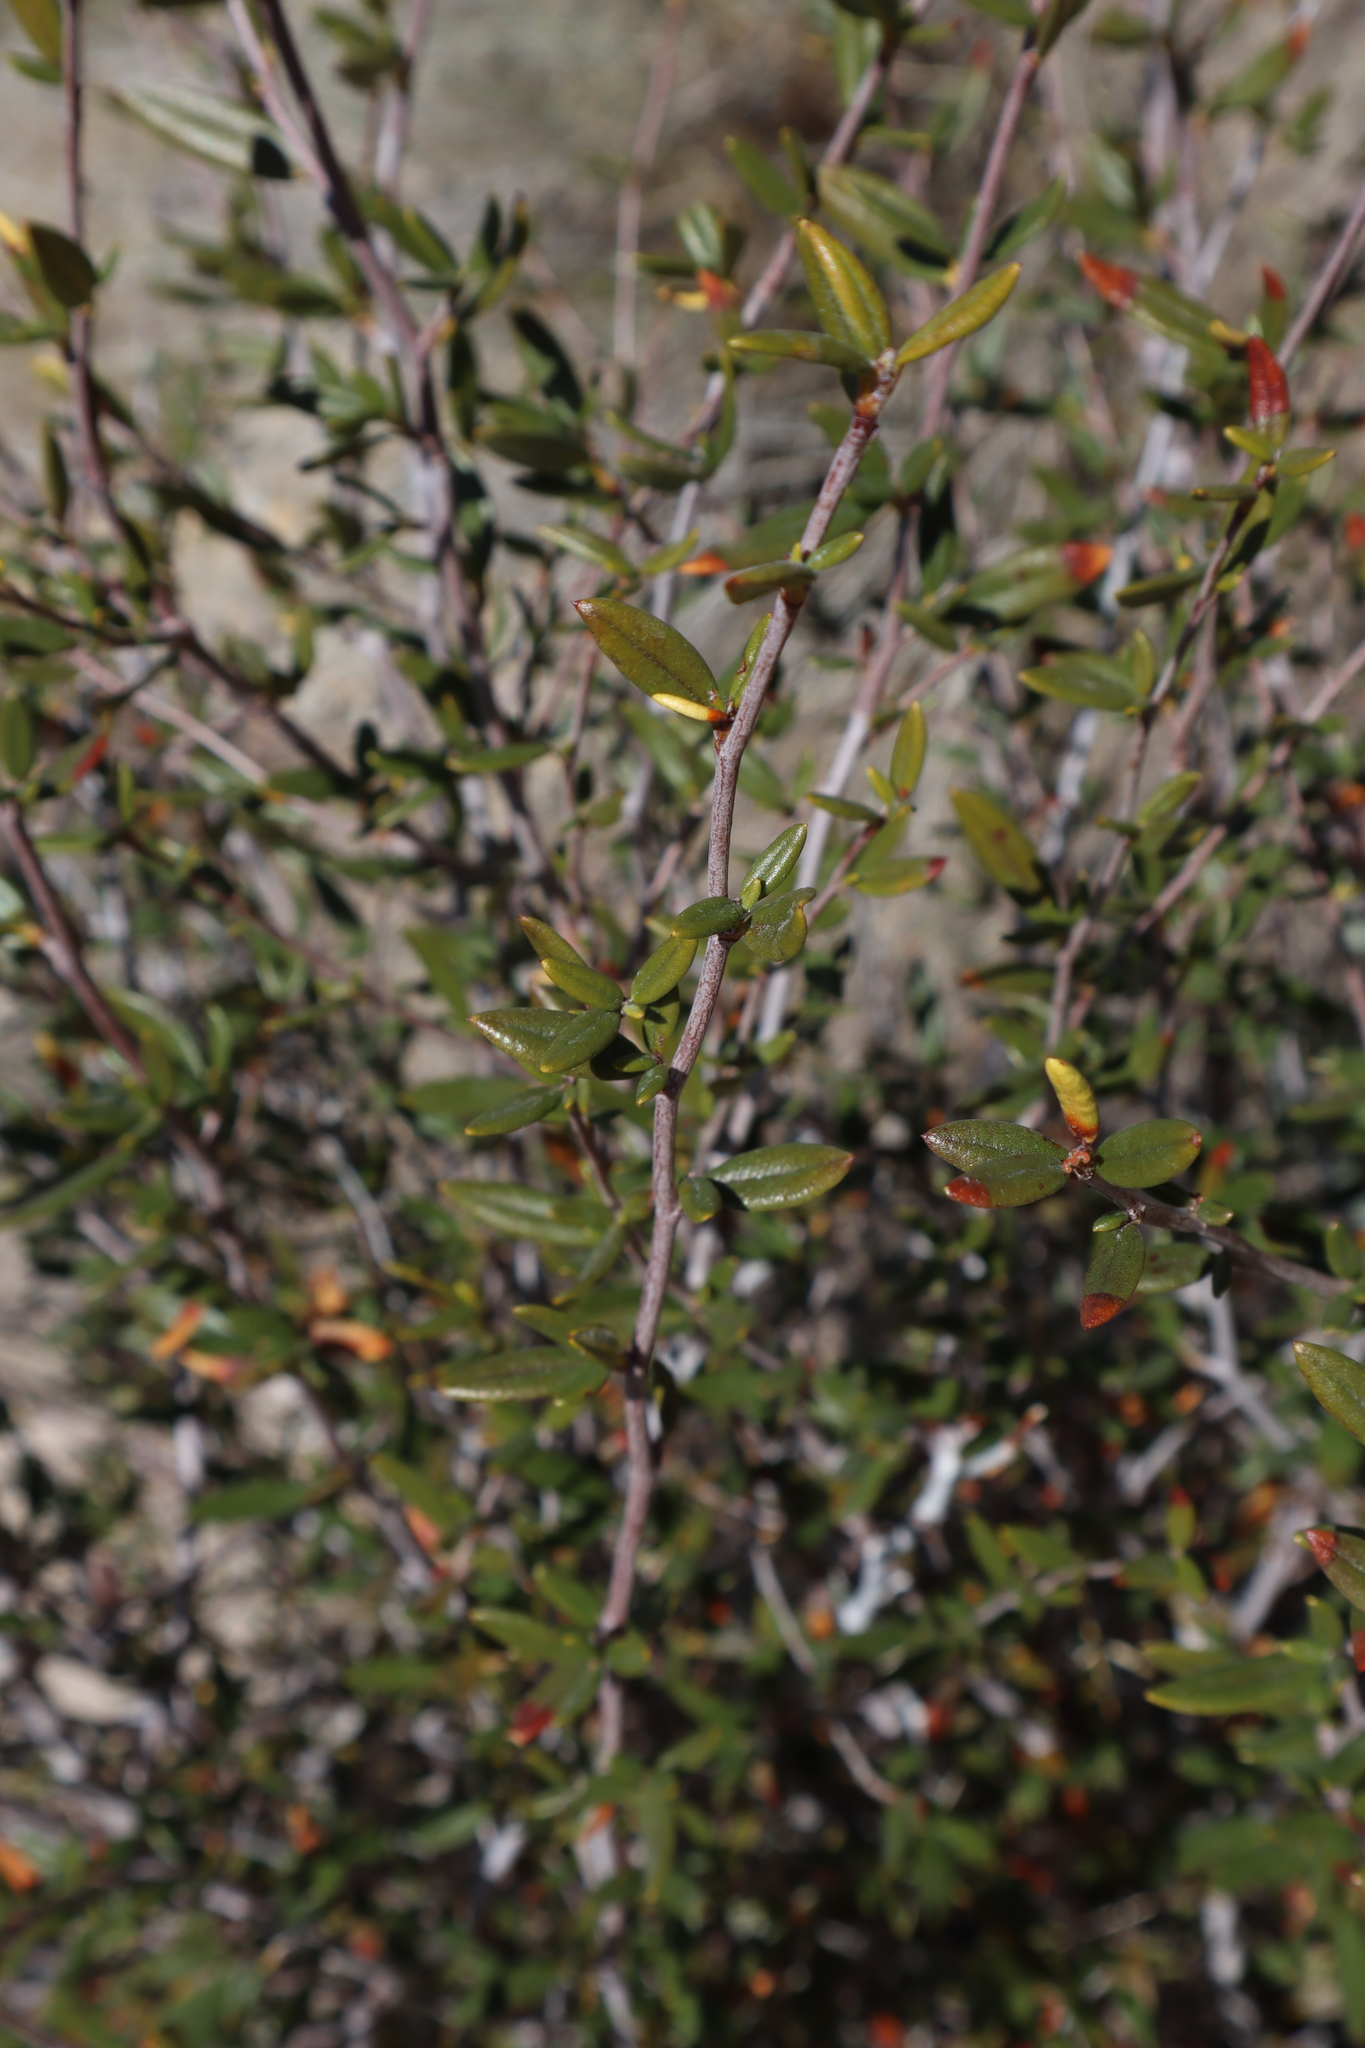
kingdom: Plantae
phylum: Tracheophyta
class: Magnoliopsida
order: Rosales
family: Rosaceae
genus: Cercocarpus
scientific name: Cercocarpus ledifolius
